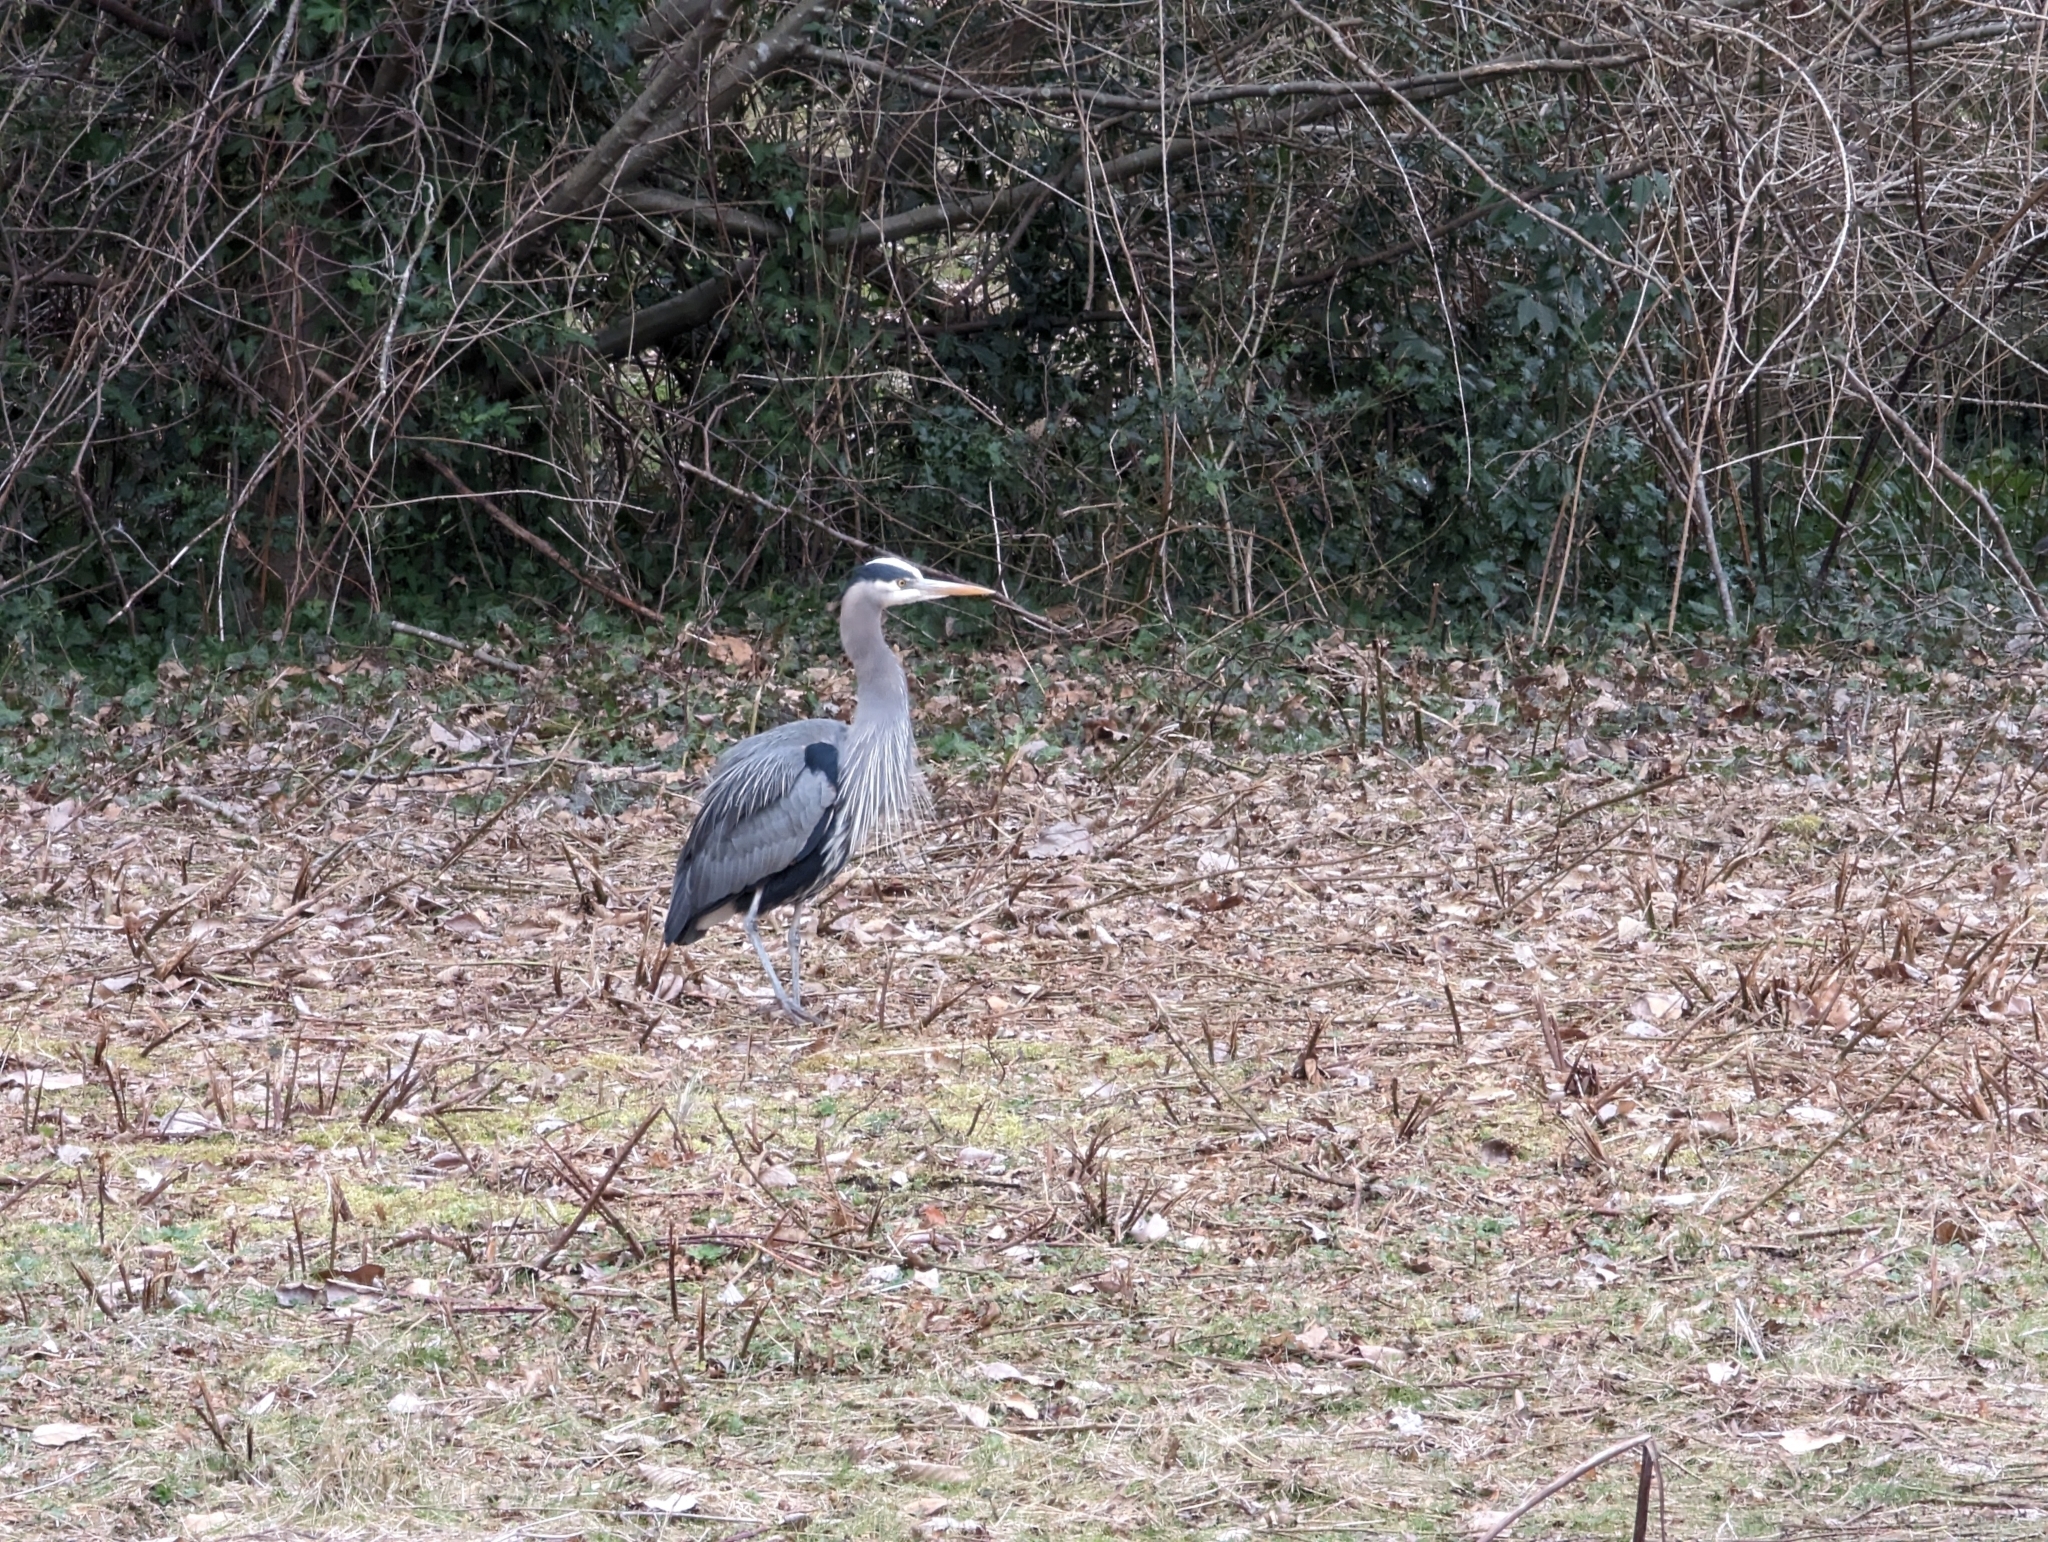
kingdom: Animalia
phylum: Chordata
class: Aves
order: Pelecaniformes
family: Ardeidae
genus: Ardea
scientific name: Ardea herodias
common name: Great blue heron
